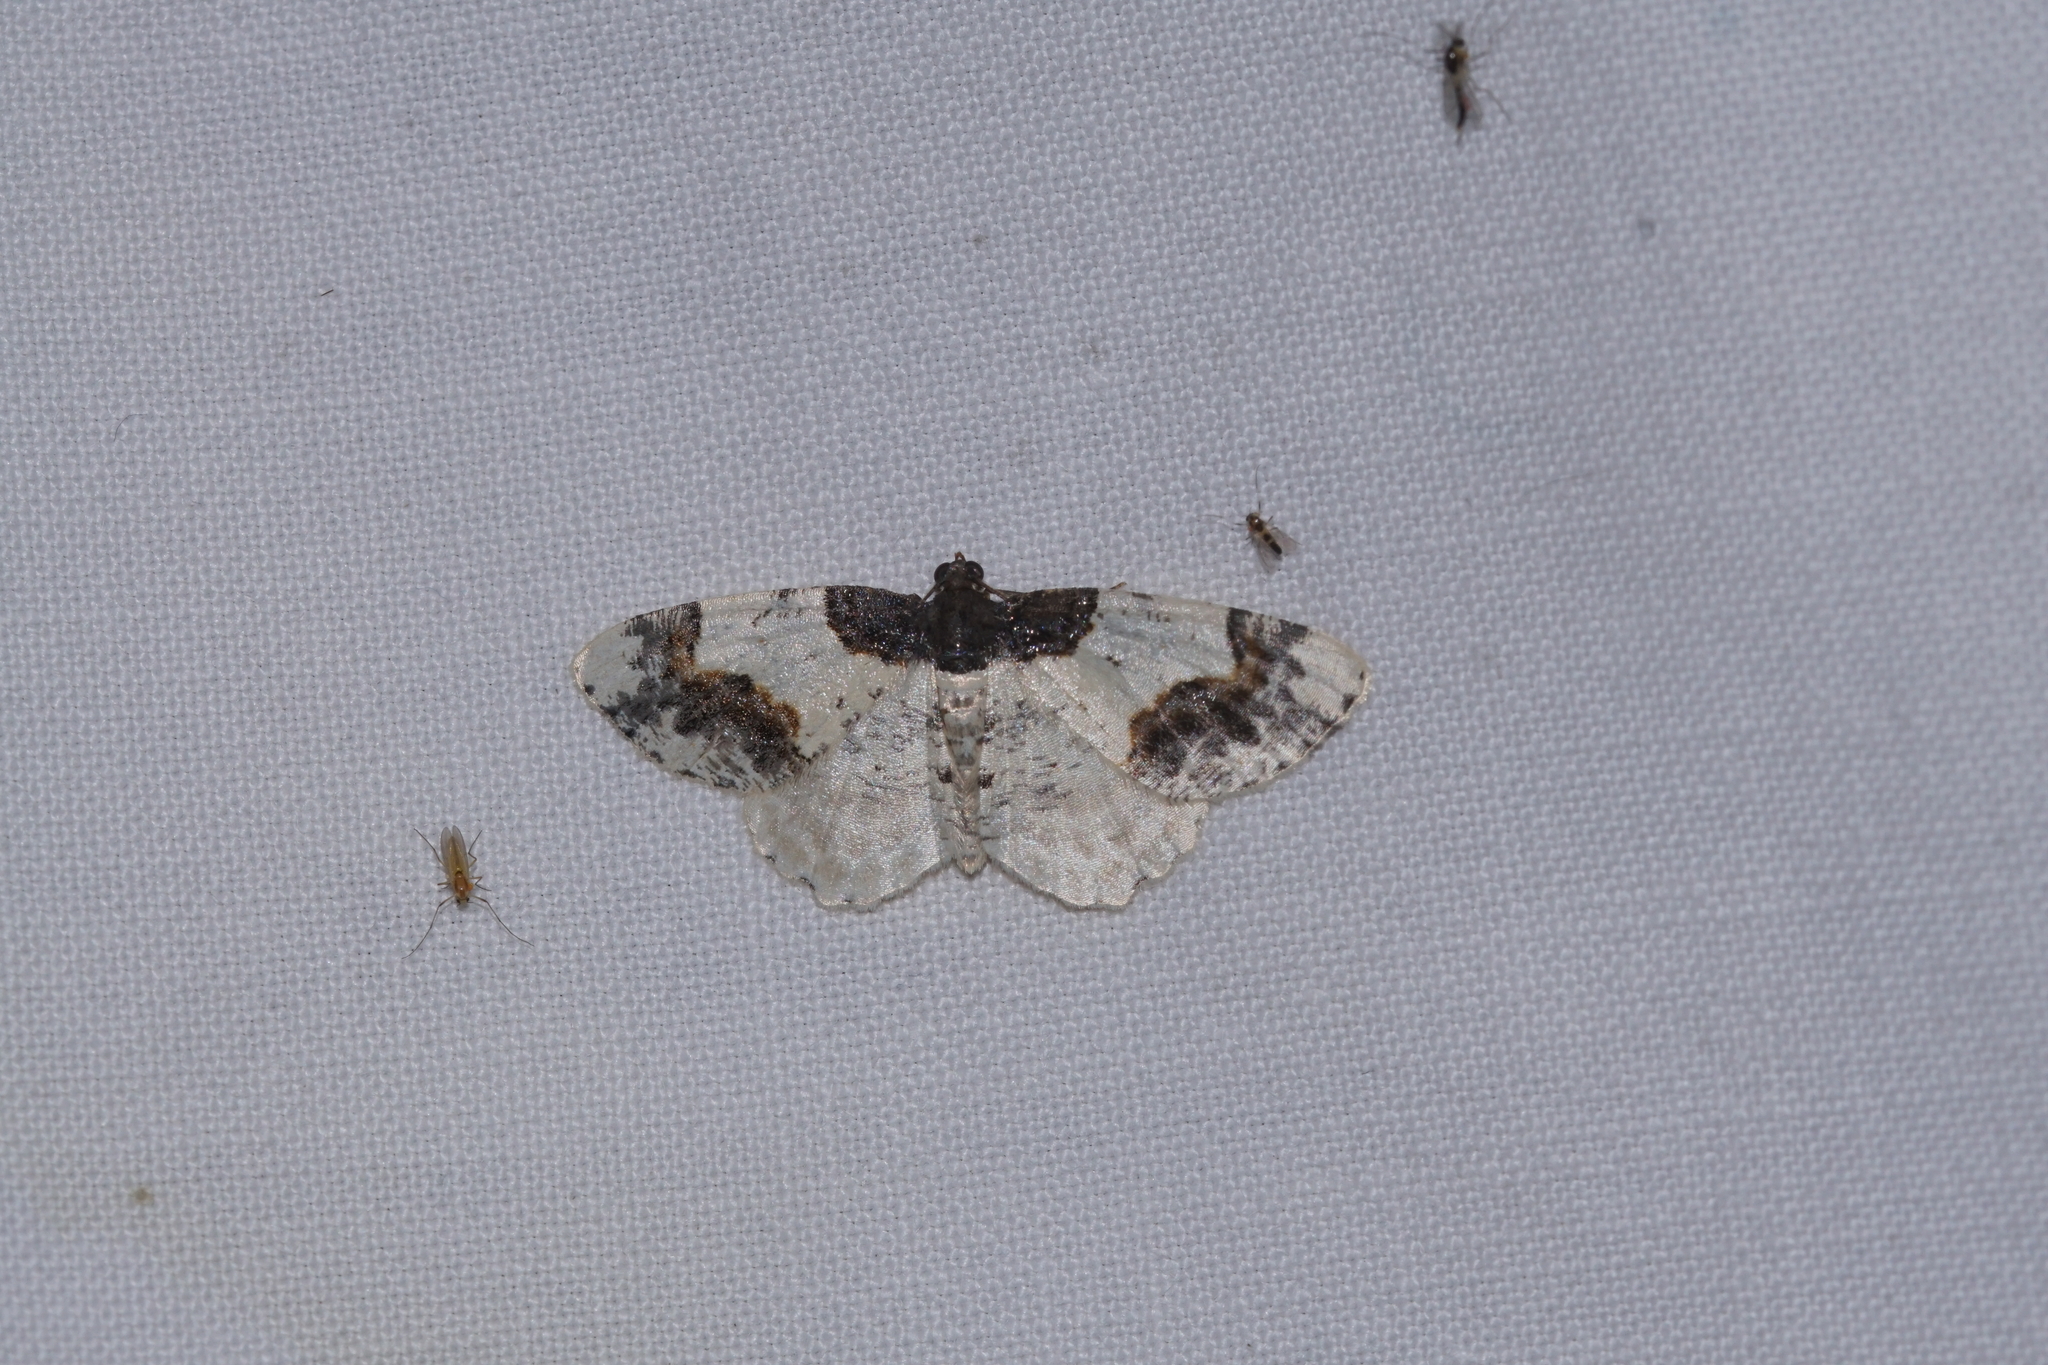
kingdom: Animalia
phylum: Arthropoda
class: Insecta
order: Lepidoptera
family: Geometridae
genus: Ligdia
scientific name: Ligdia adustata
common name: Scorched carpet
